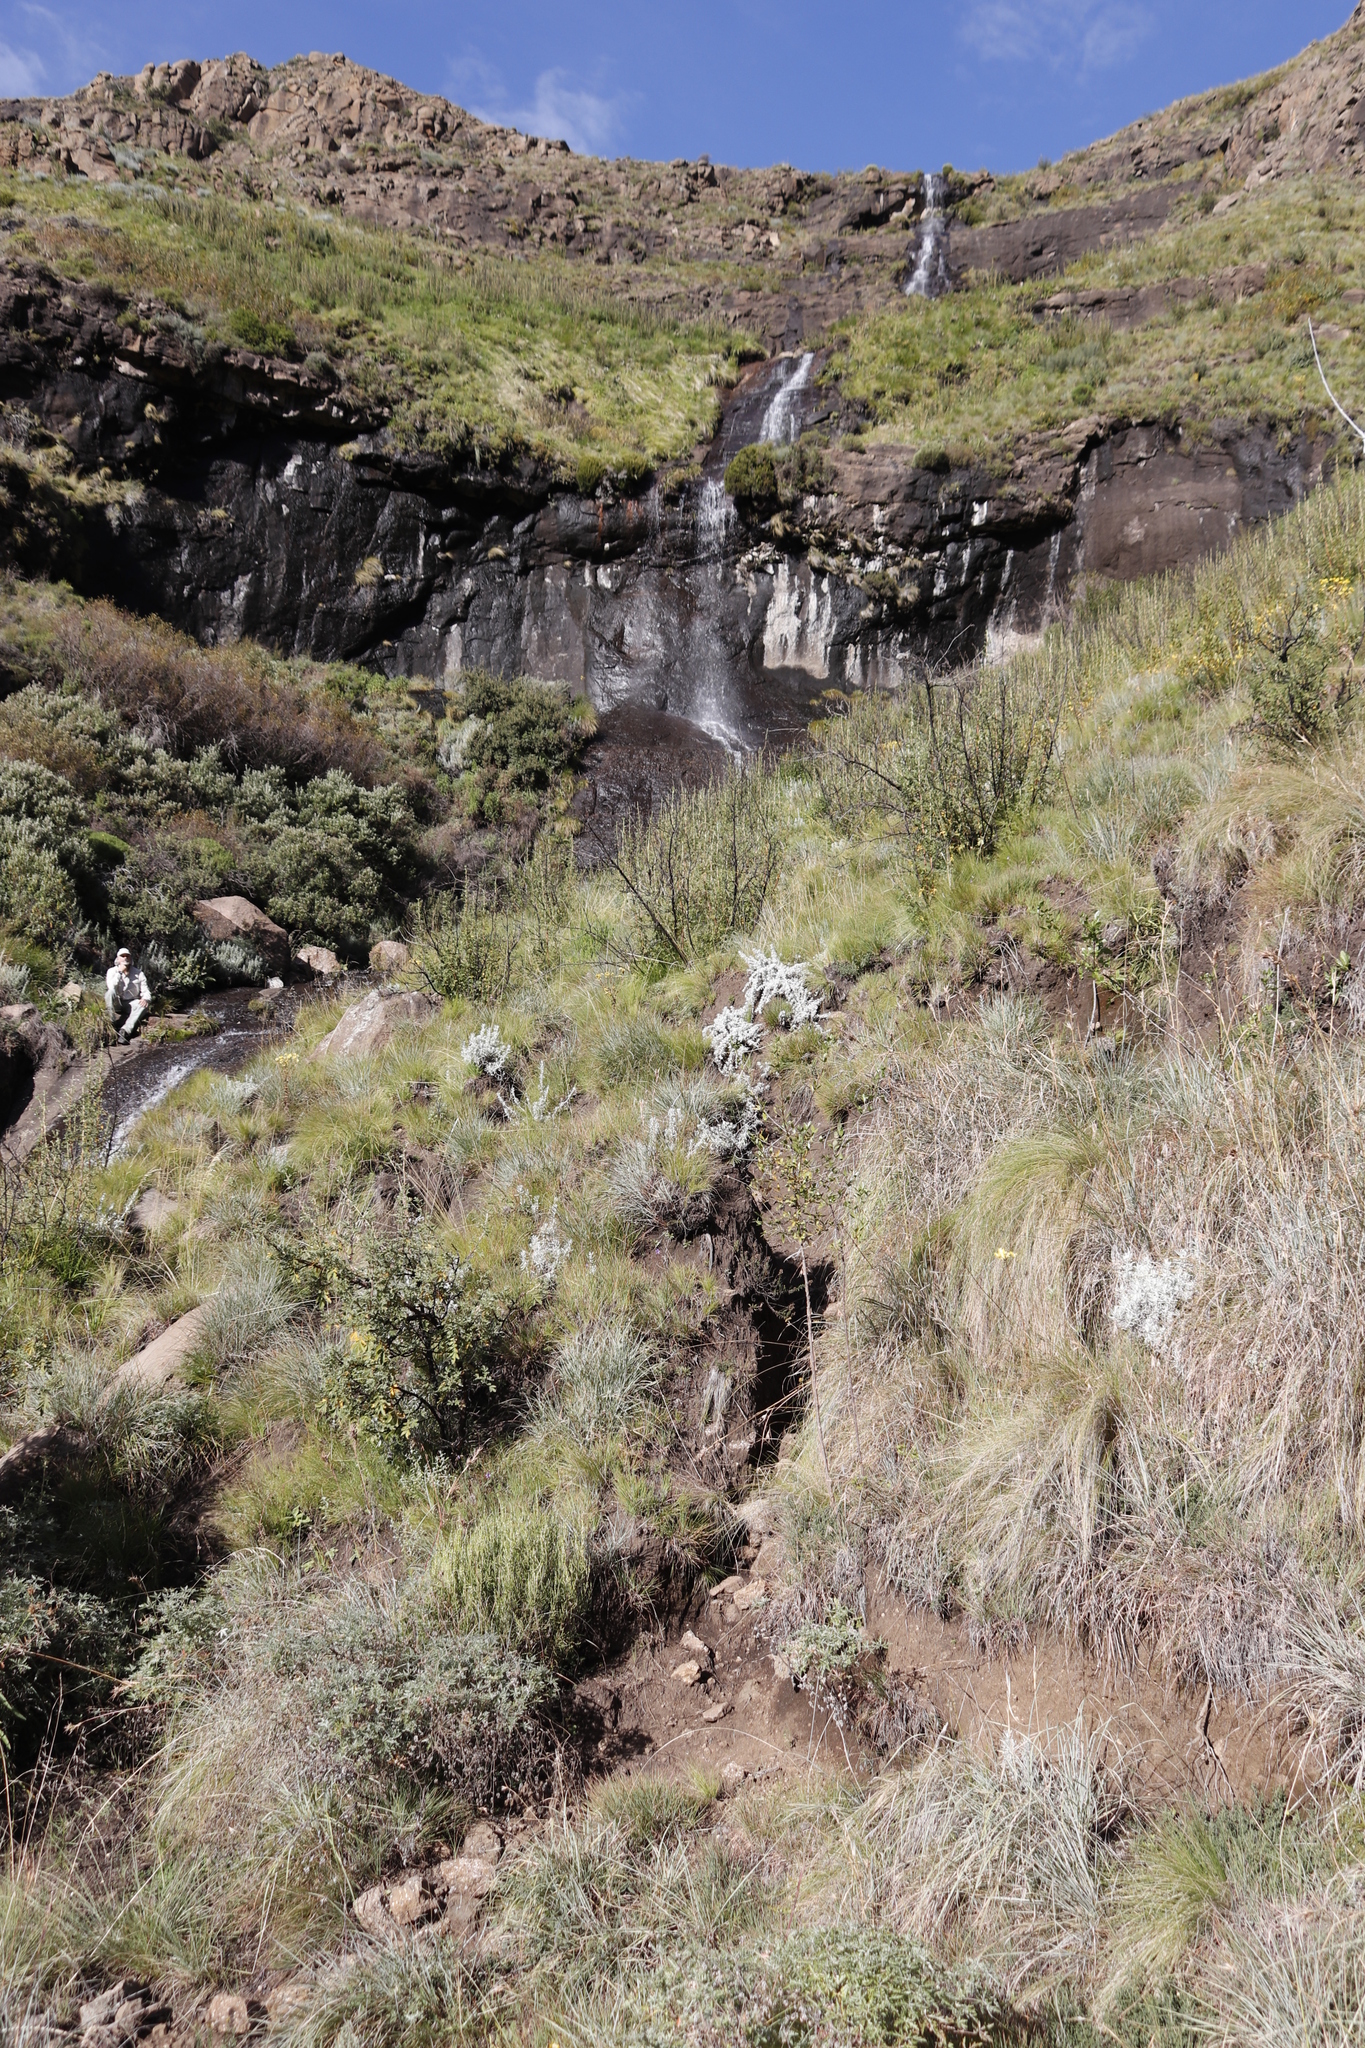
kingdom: Plantae
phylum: Tracheophyta
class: Magnoliopsida
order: Rosales
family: Rosaceae
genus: Leucosidea
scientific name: Leucosidea sericea
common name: Oldwood
